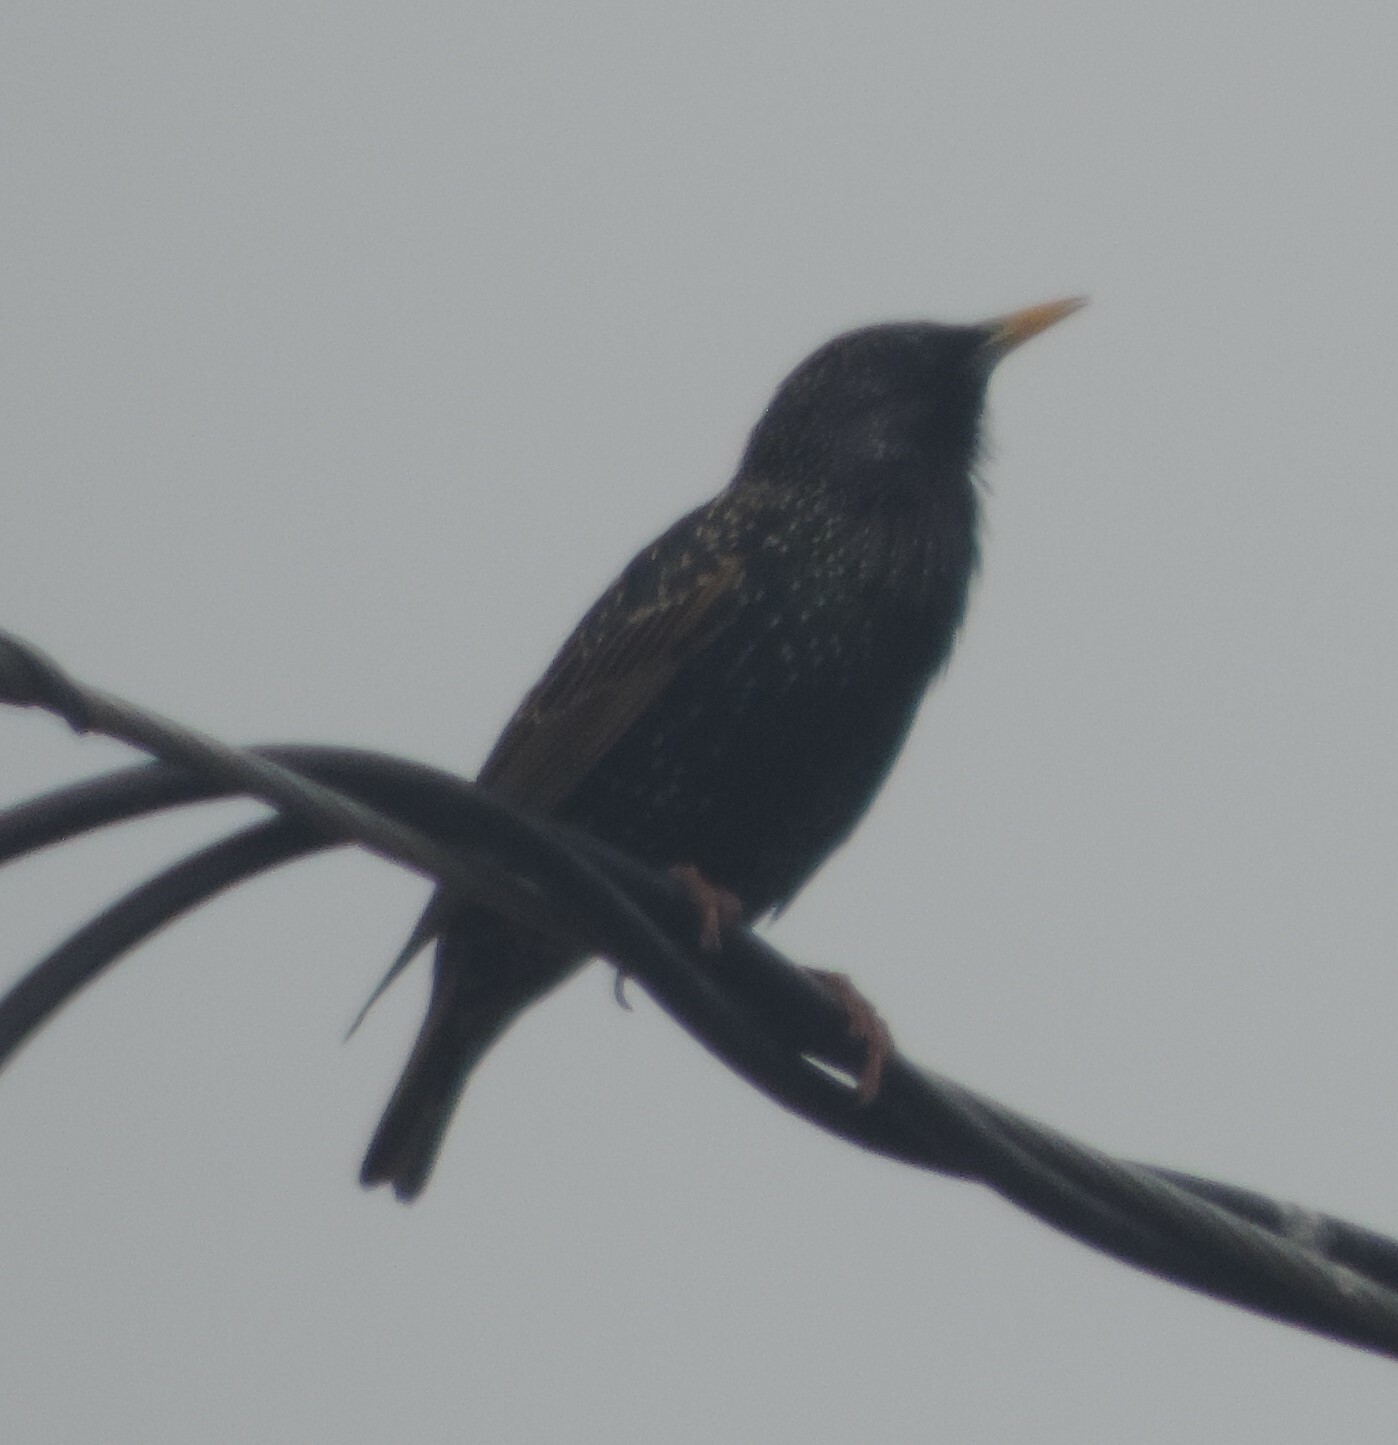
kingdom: Animalia
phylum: Chordata
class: Aves
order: Passeriformes
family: Sturnidae
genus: Sturnus
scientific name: Sturnus vulgaris
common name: Common starling
